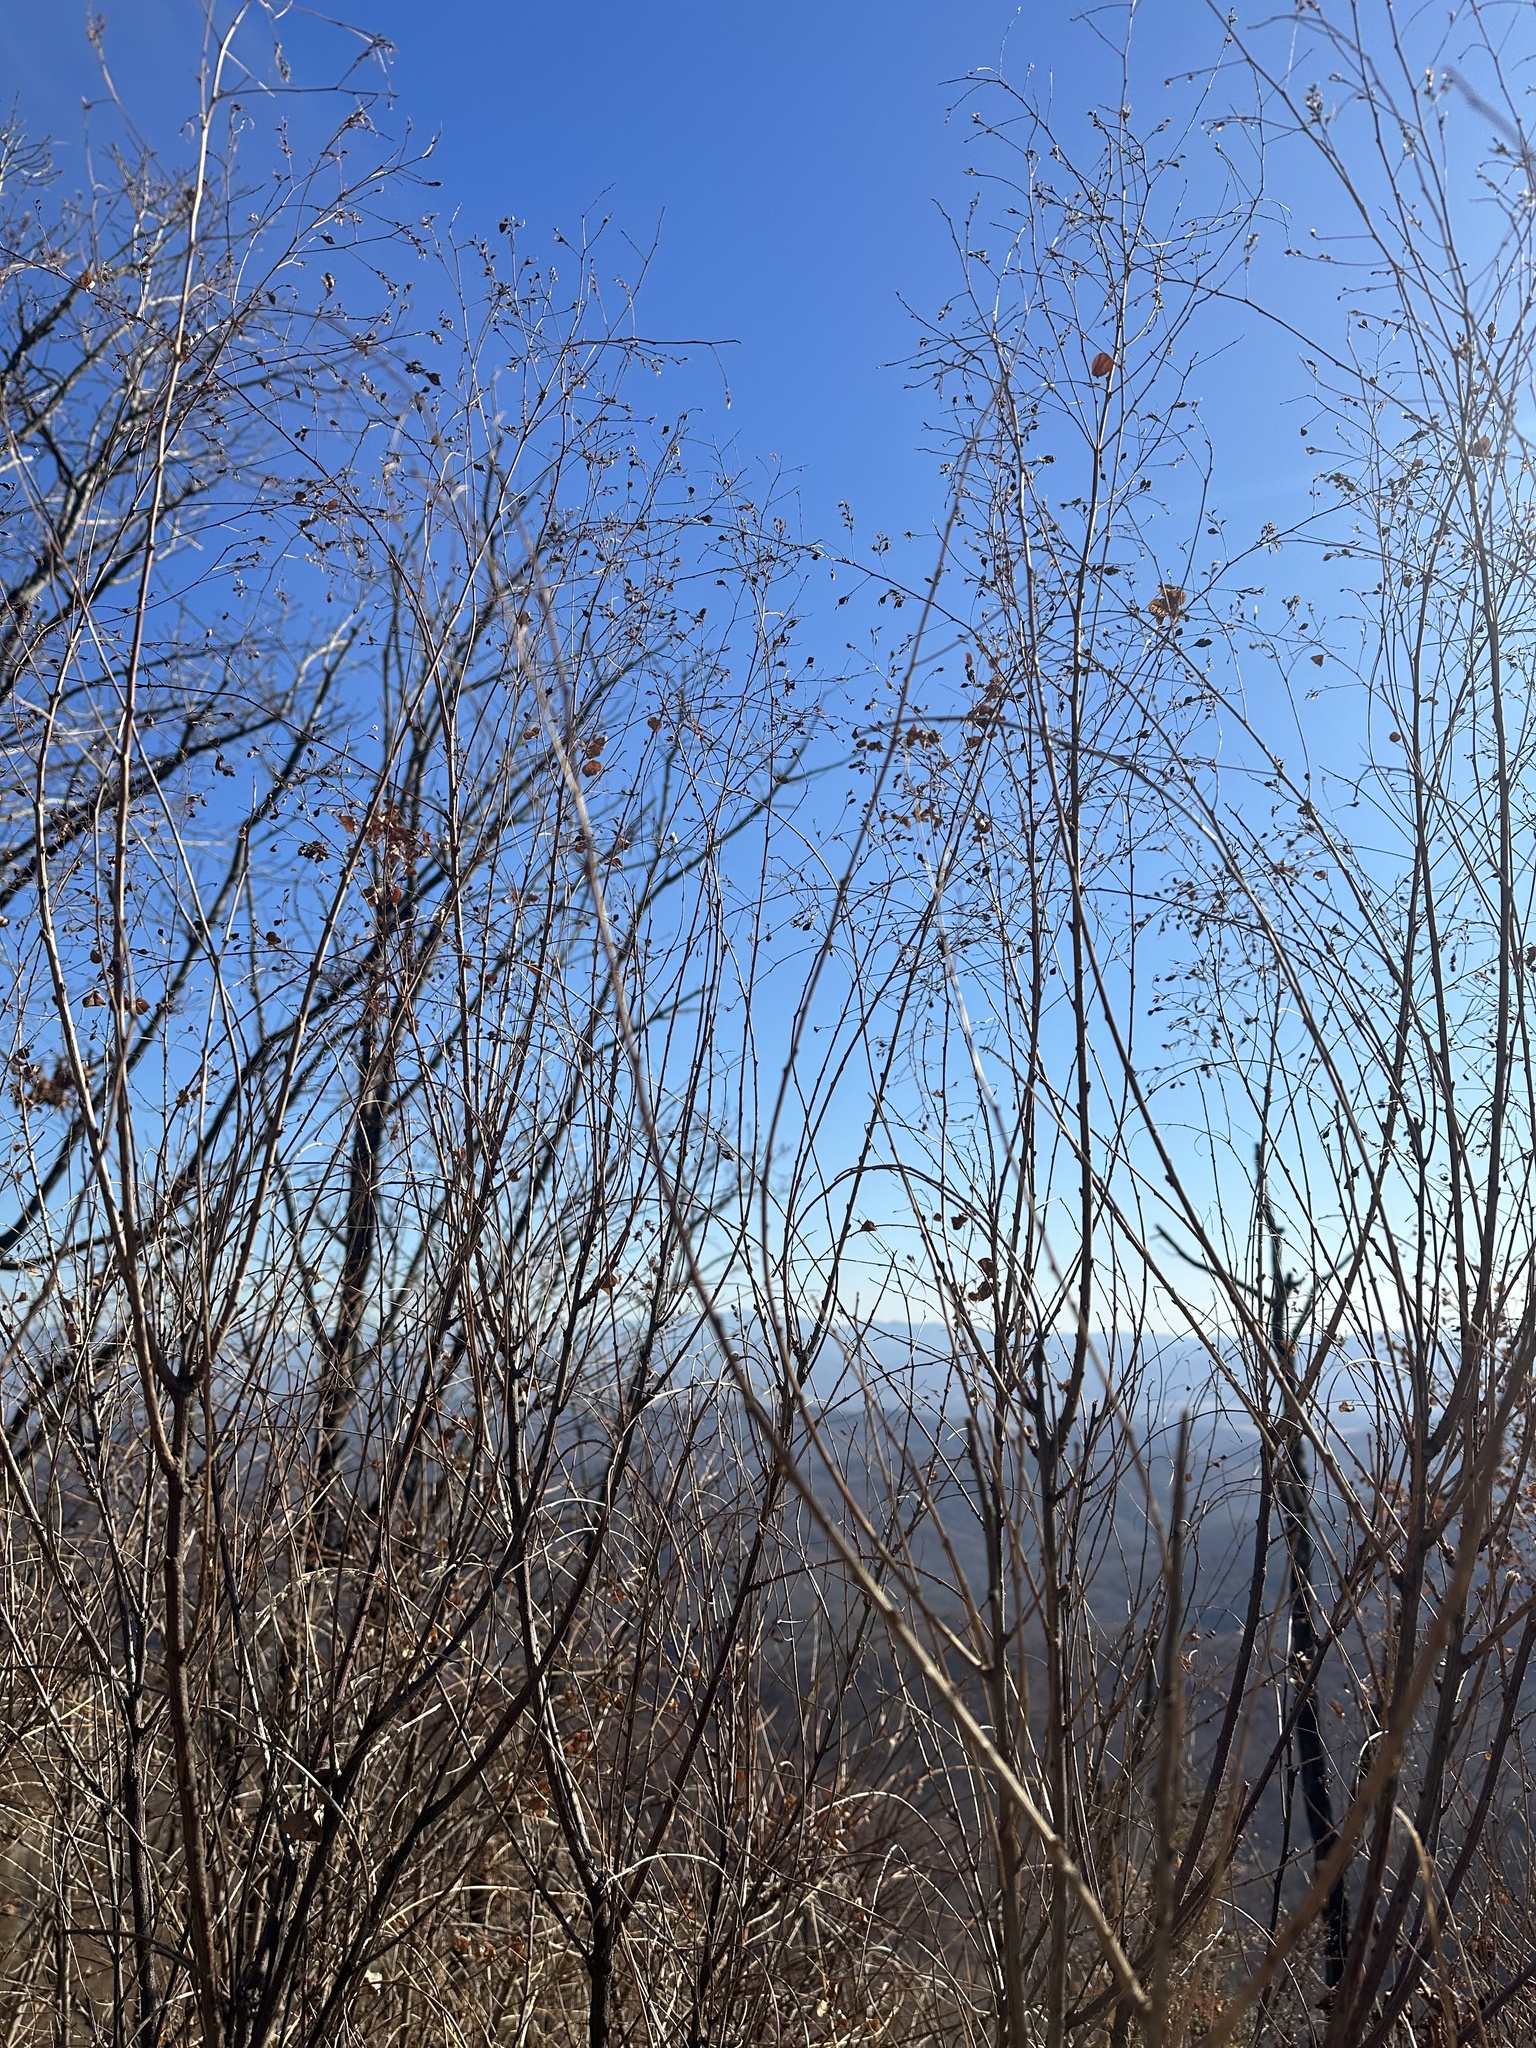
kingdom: Plantae
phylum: Tracheophyta
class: Magnoliopsida
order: Fabales
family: Fabaceae
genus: Lespedeza
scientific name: Lespedeza bicolor
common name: Shrub lespedeza
